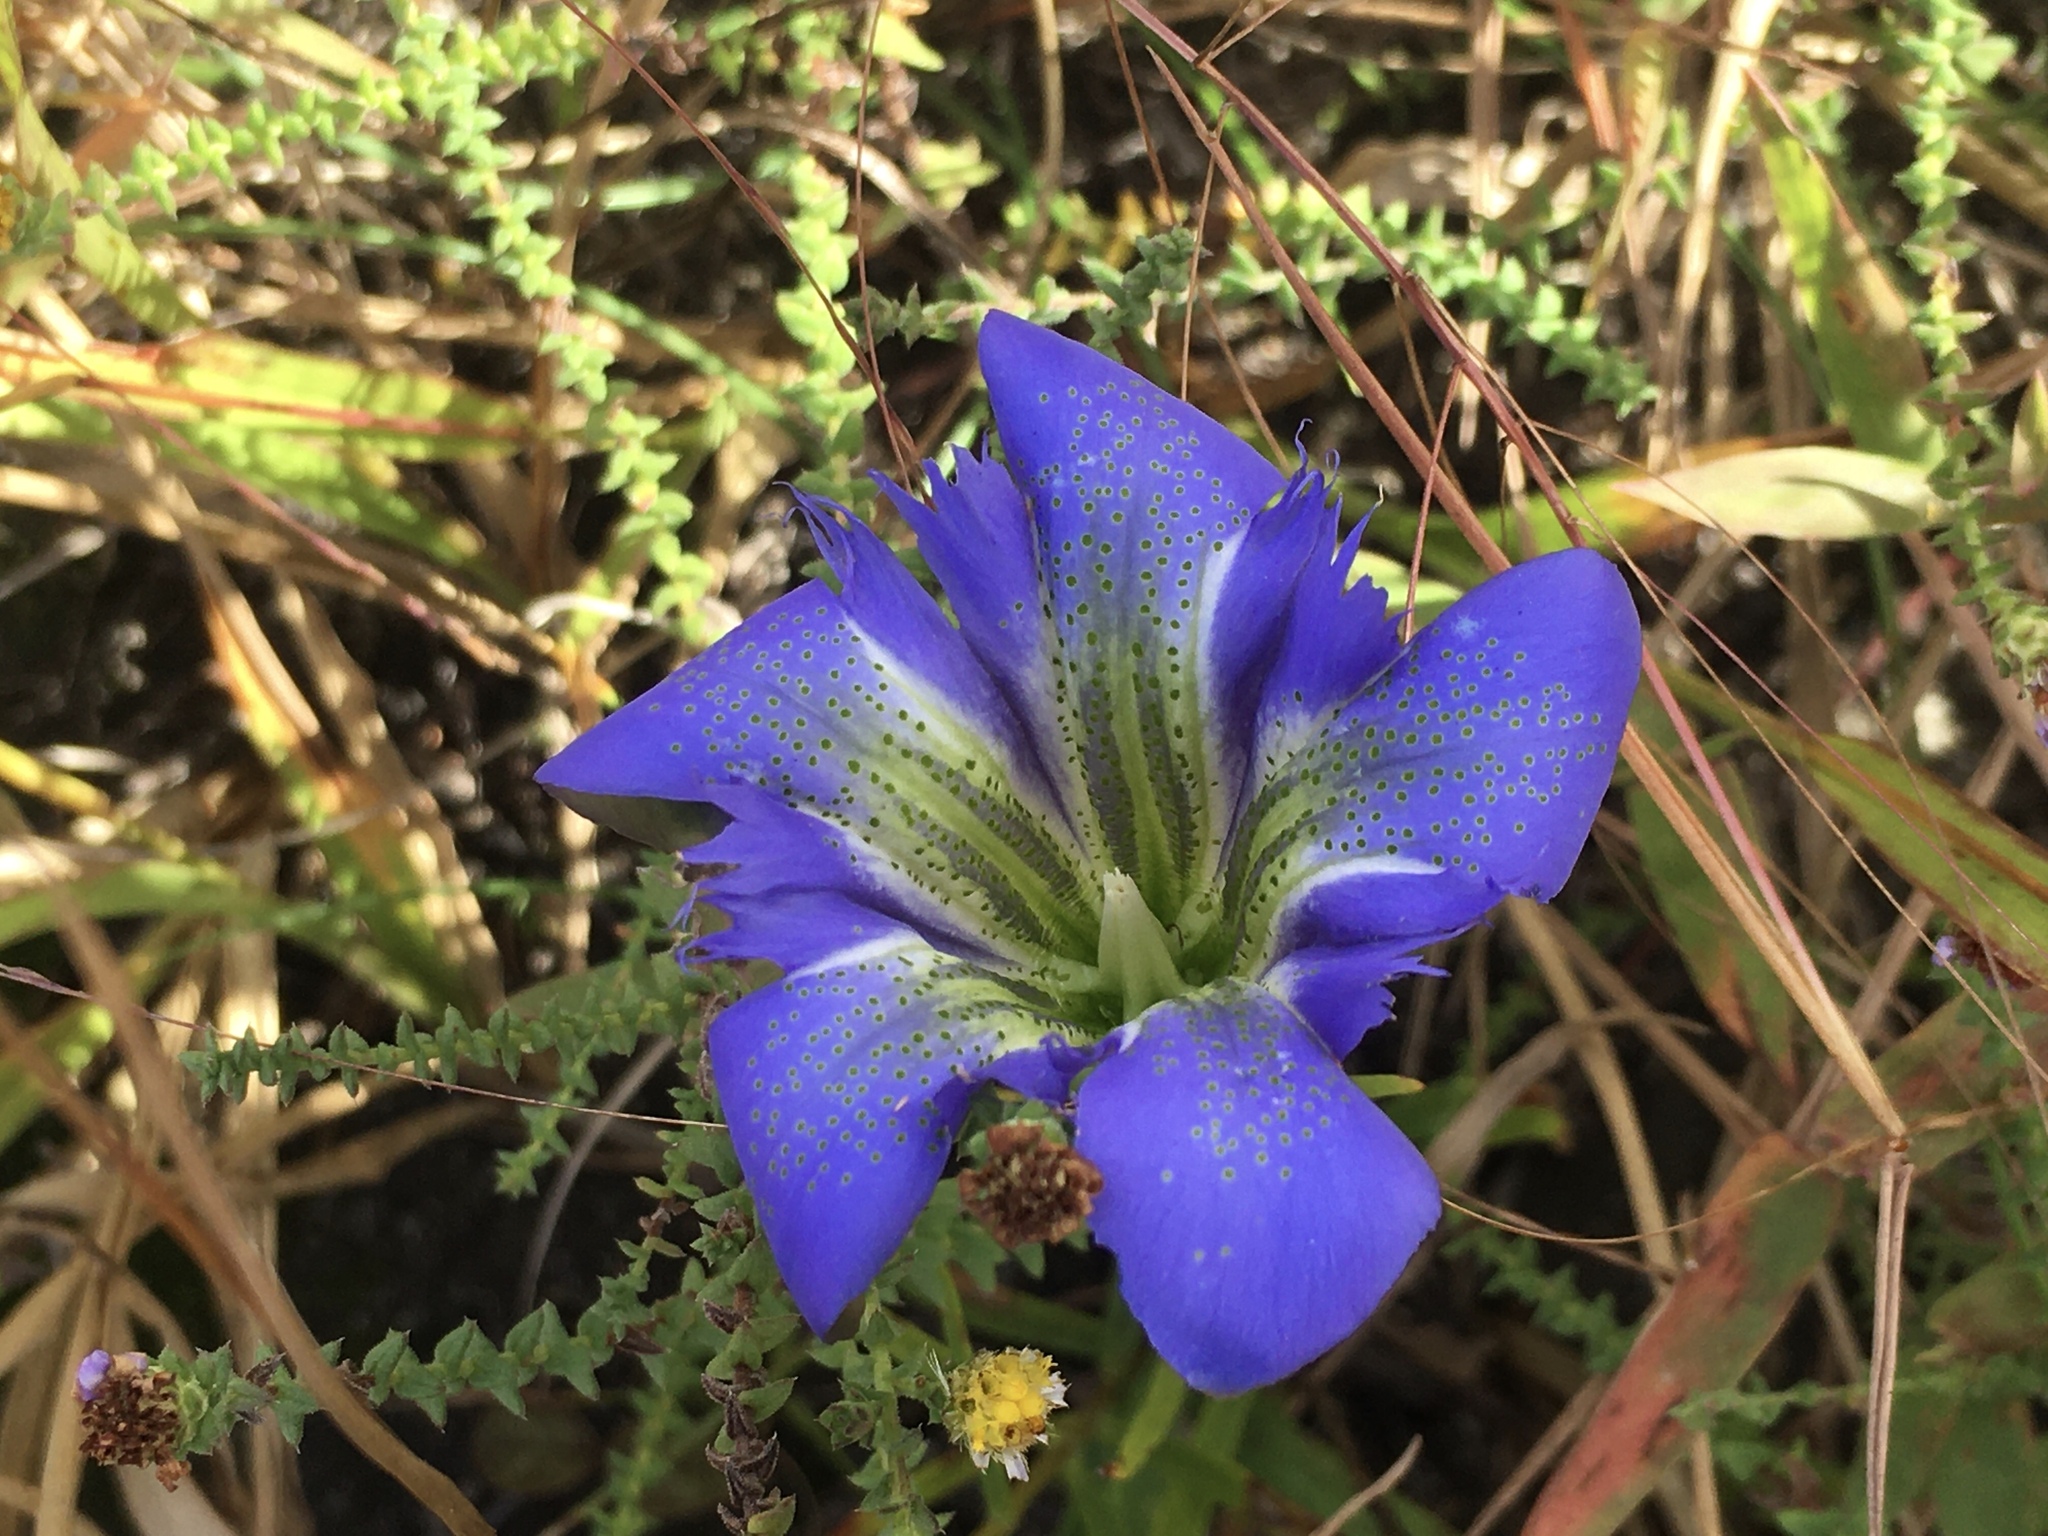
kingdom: Plantae
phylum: Tracheophyta
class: Magnoliopsida
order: Gentianales
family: Gentianaceae
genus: Gentiana
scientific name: Gentiana autumnalis
